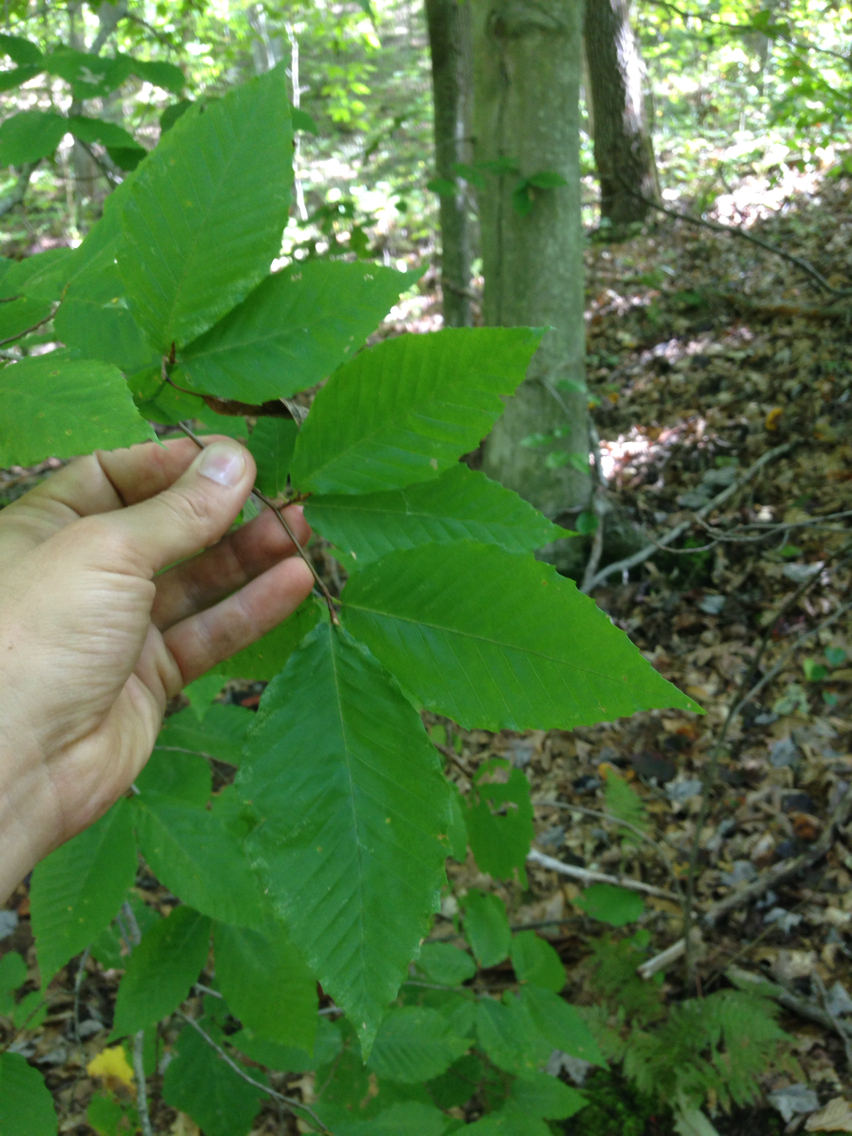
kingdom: Plantae
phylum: Tracheophyta
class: Magnoliopsida
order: Fagales
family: Fagaceae
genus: Fagus
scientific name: Fagus grandifolia
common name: American beech
